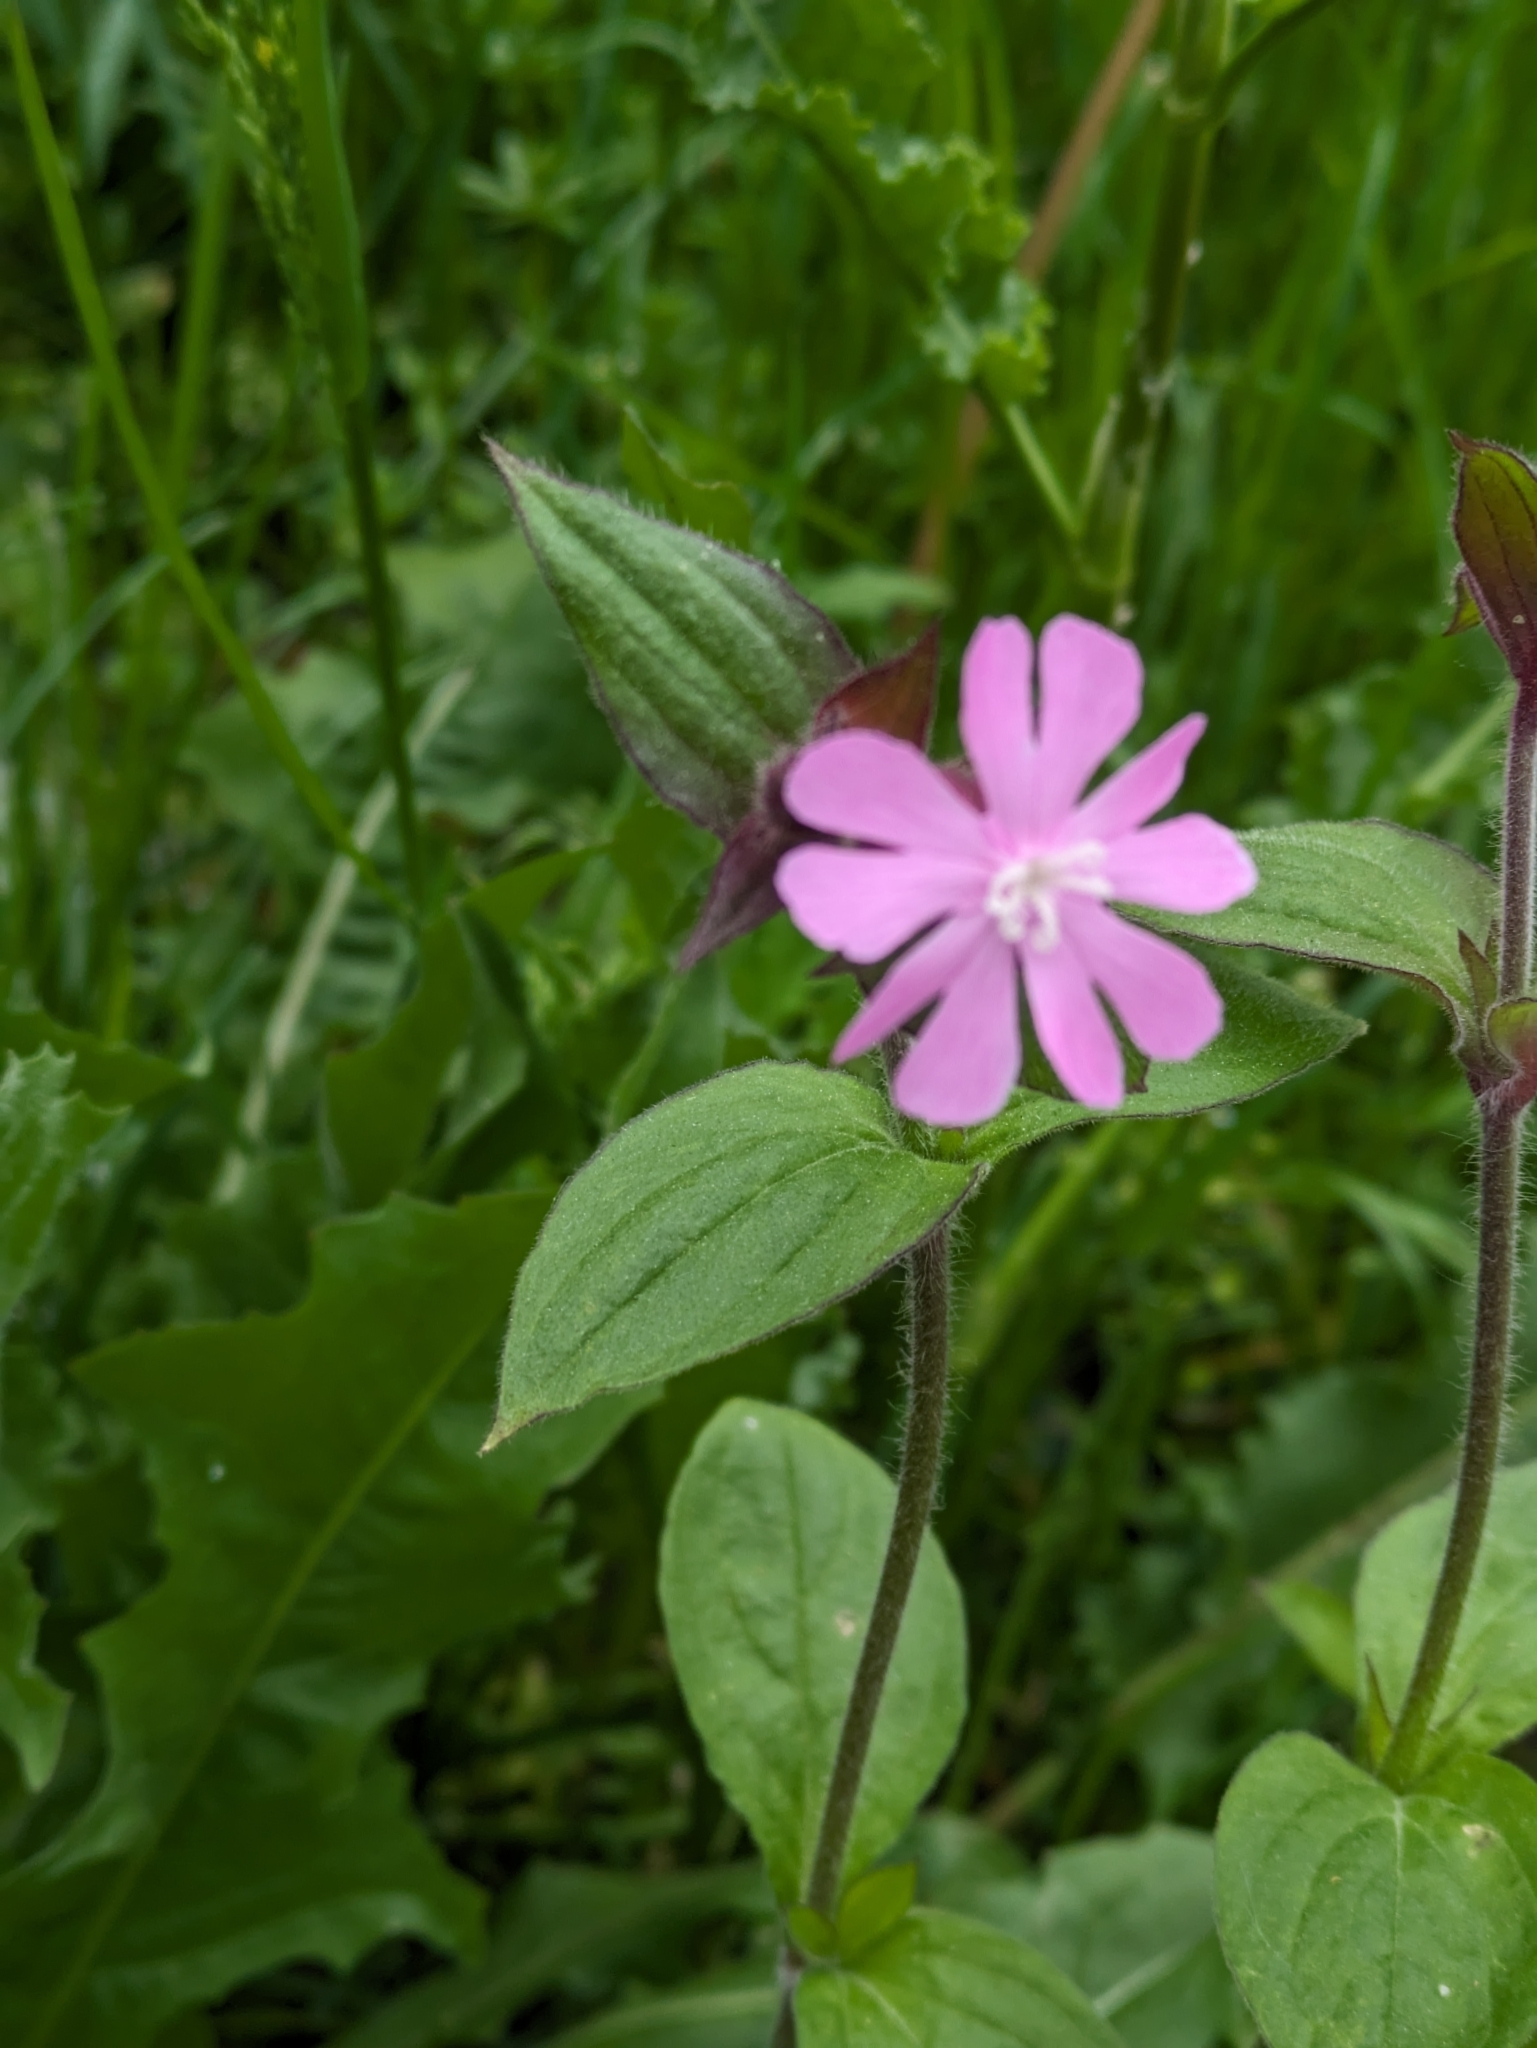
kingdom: Plantae
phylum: Tracheophyta
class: Magnoliopsida
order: Caryophyllales
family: Caryophyllaceae
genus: Silene
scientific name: Silene dioica
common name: Red campion
